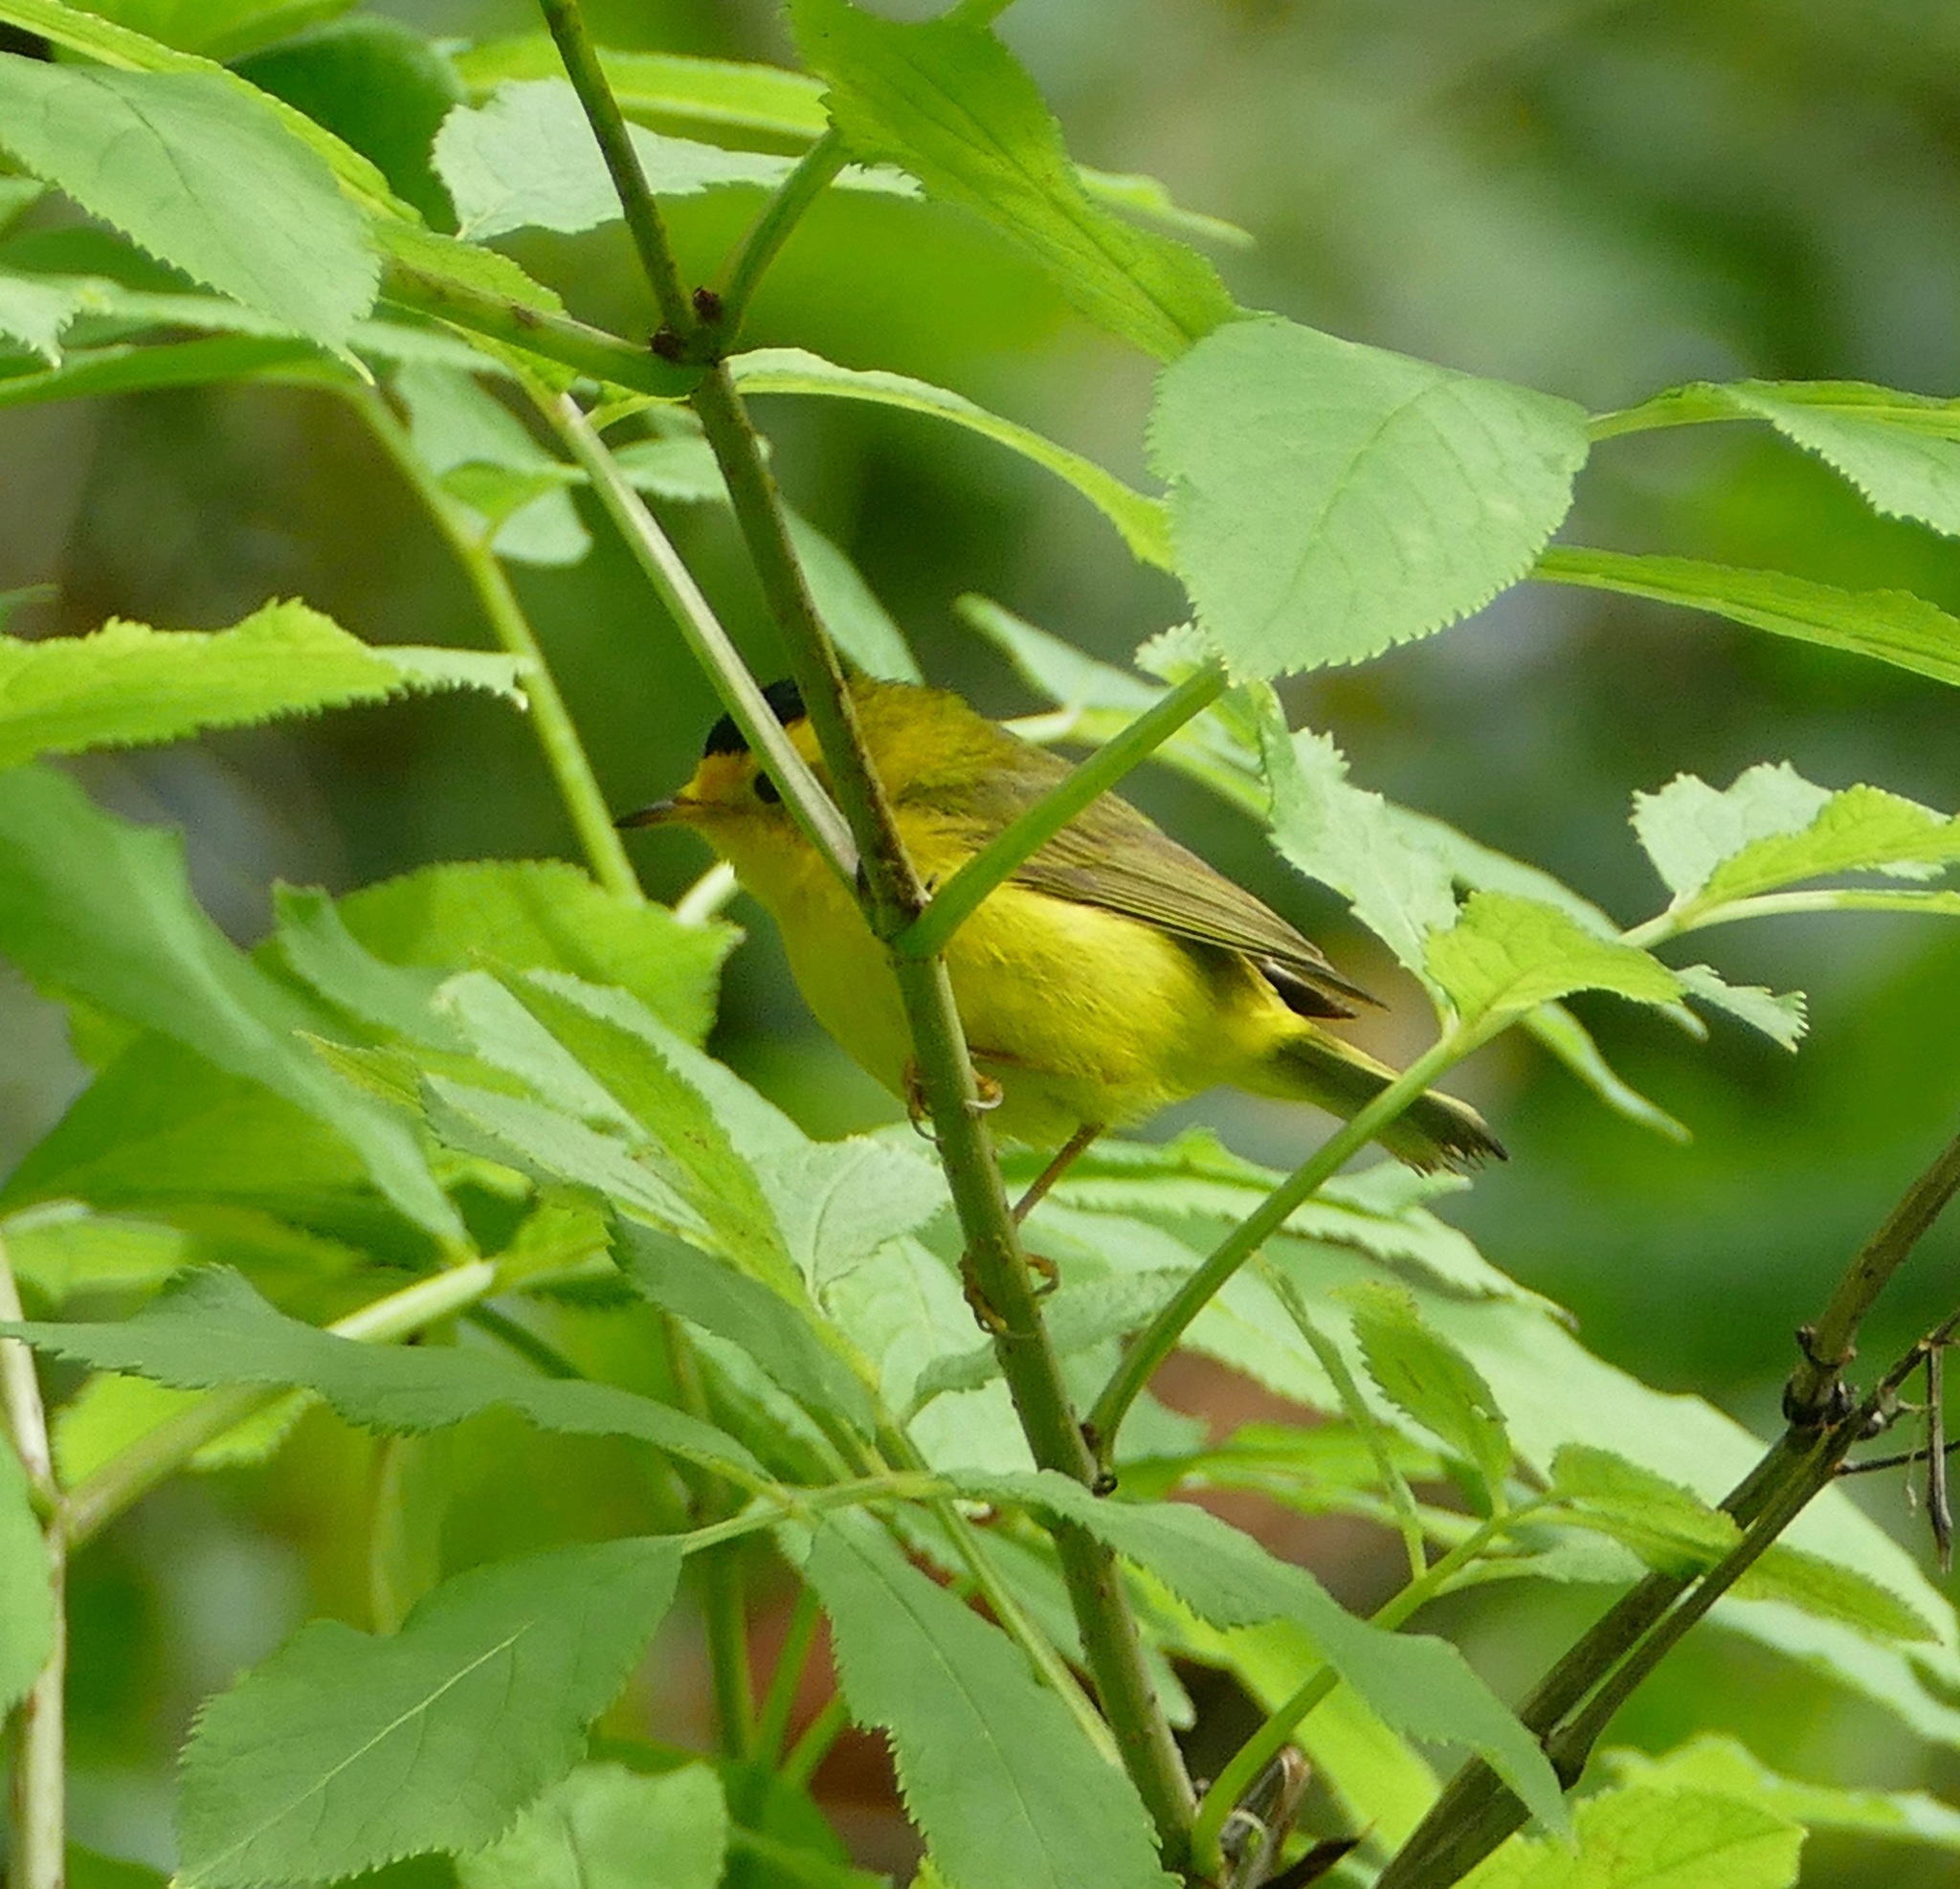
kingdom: Animalia
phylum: Chordata
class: Aves
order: Passeriformes
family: Parulidae
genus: Cardellina
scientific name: Cardellina pusilla
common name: Wilson's warbler
